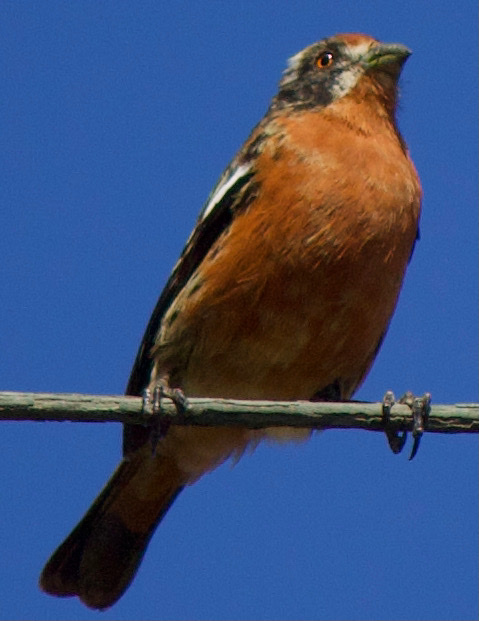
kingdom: Animalia
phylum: Chordata
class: Aves
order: Passeriformes
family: Cotingidae
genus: Phytotoma
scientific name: Phytotoma rara
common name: Rufous-tailed plantcutter
